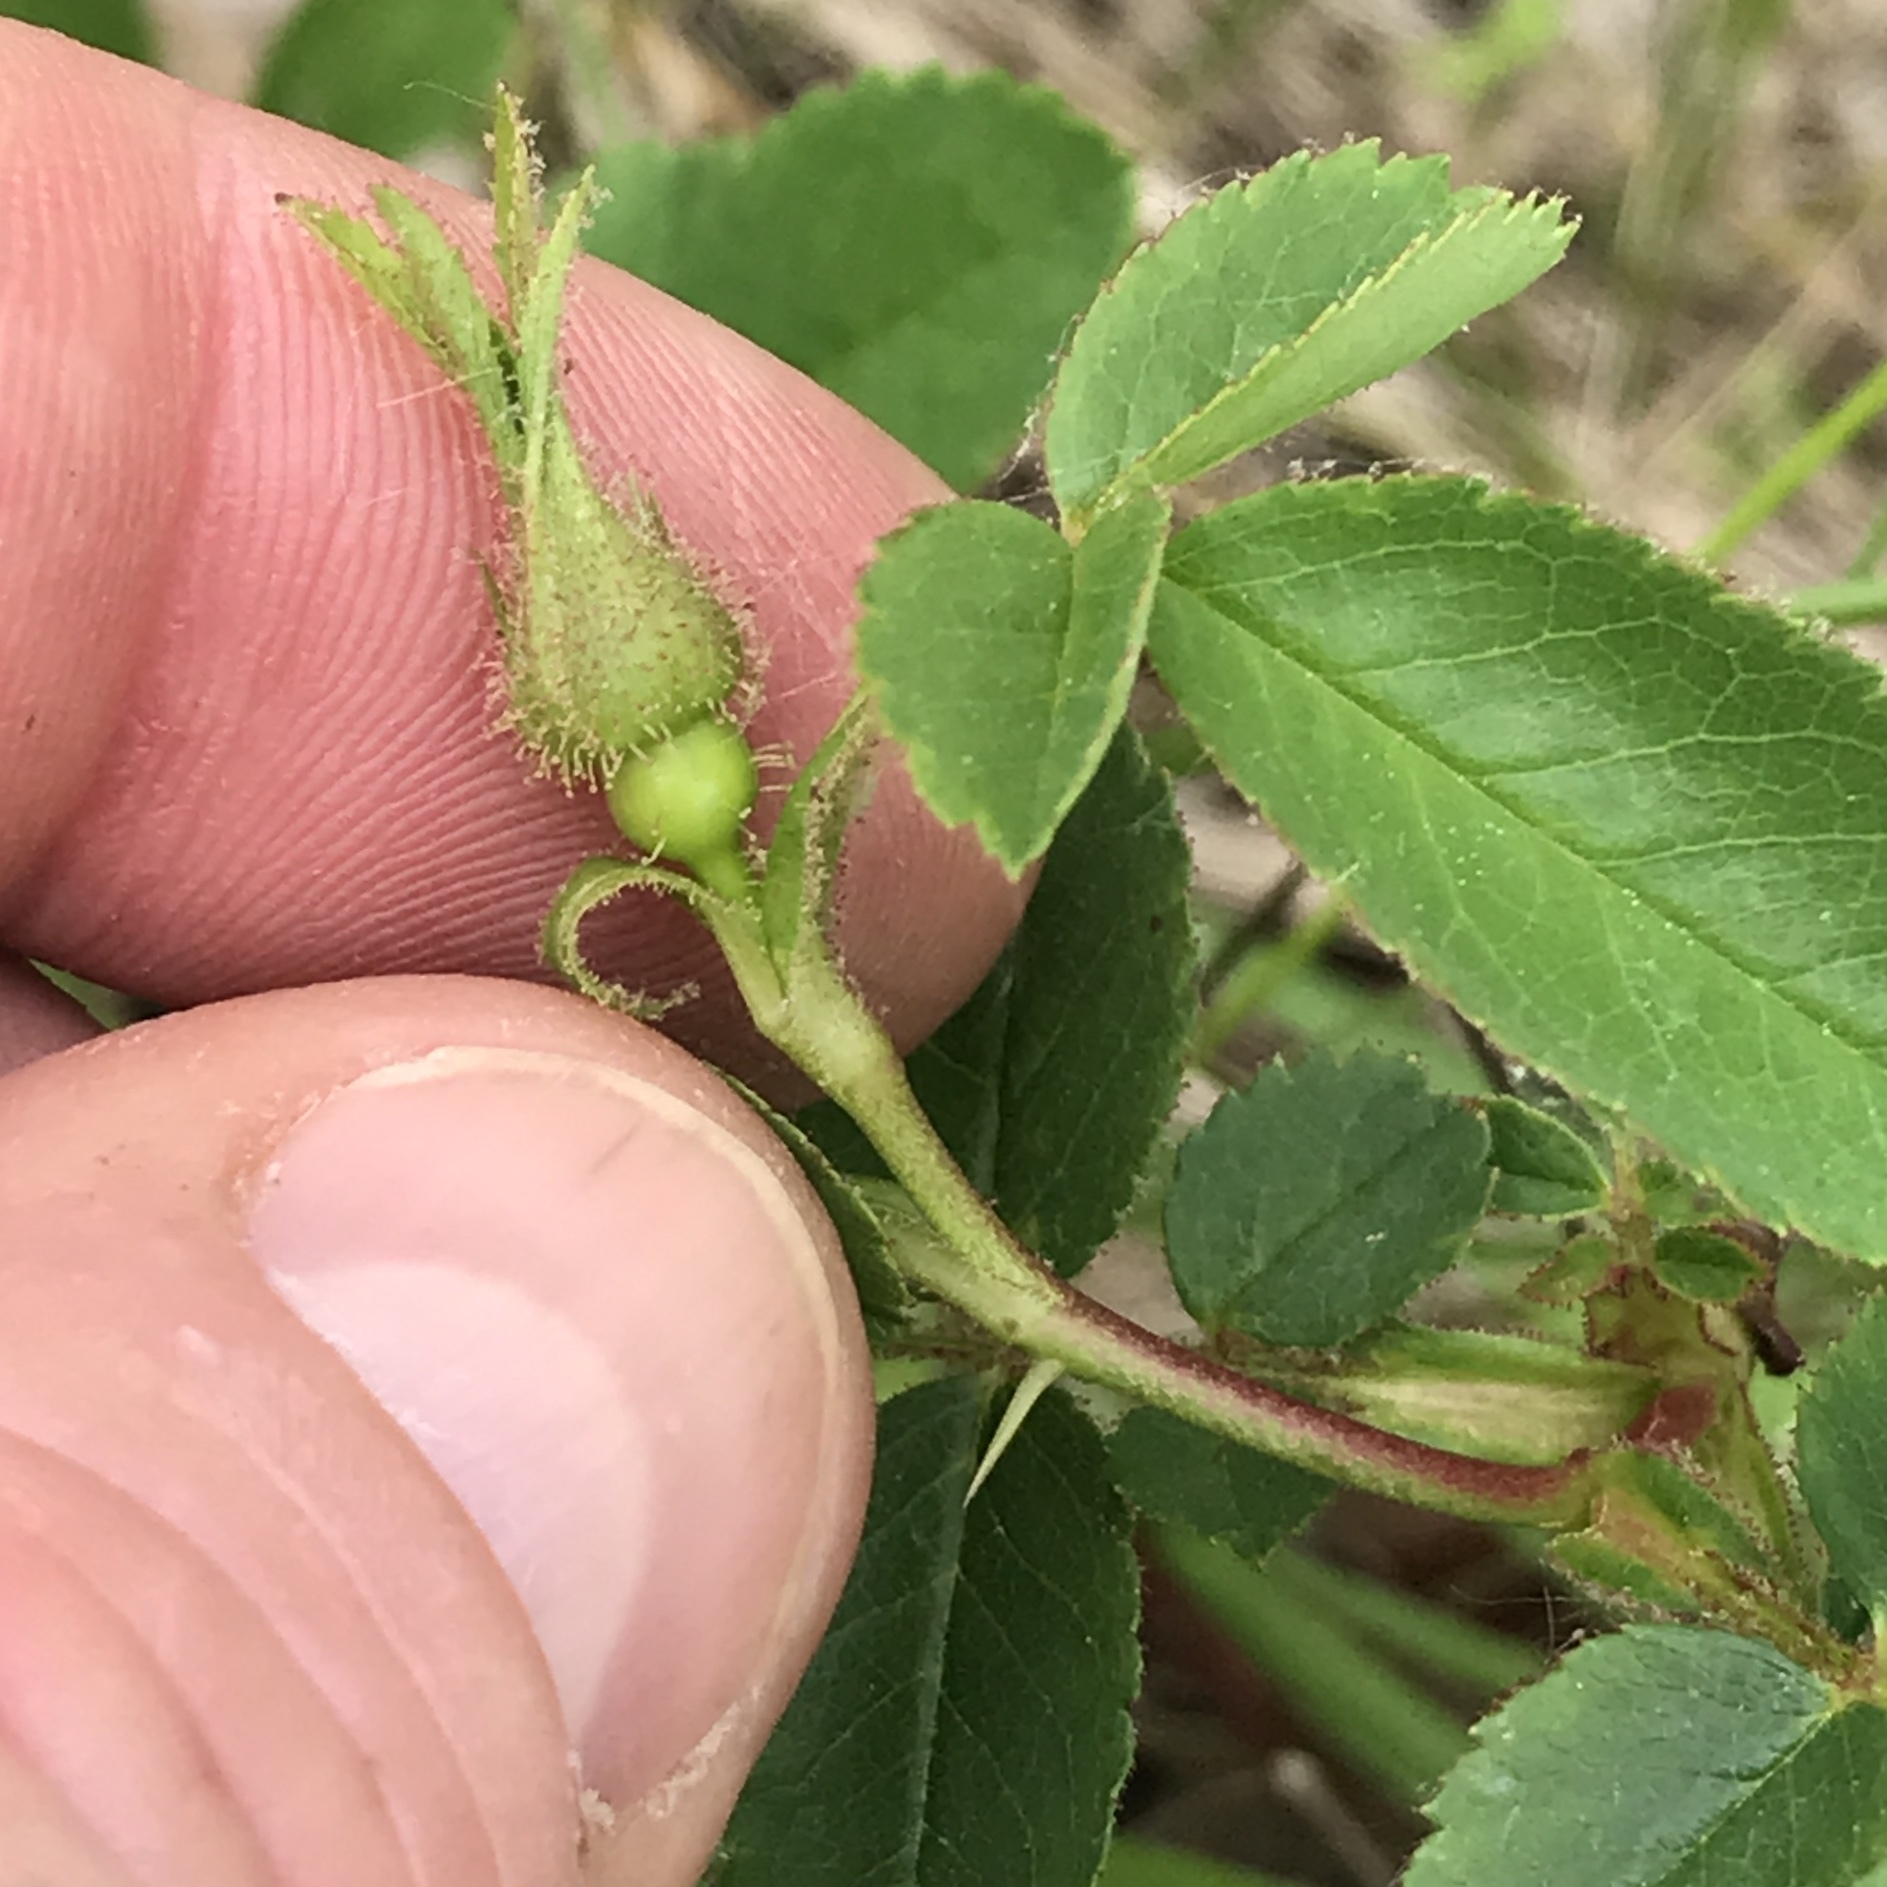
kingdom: Plantae
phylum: Tracheophyta
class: Magnoliopsida
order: Rosales
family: Rosaceae
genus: Rosa
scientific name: Rosa carolina
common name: Pasture rose
